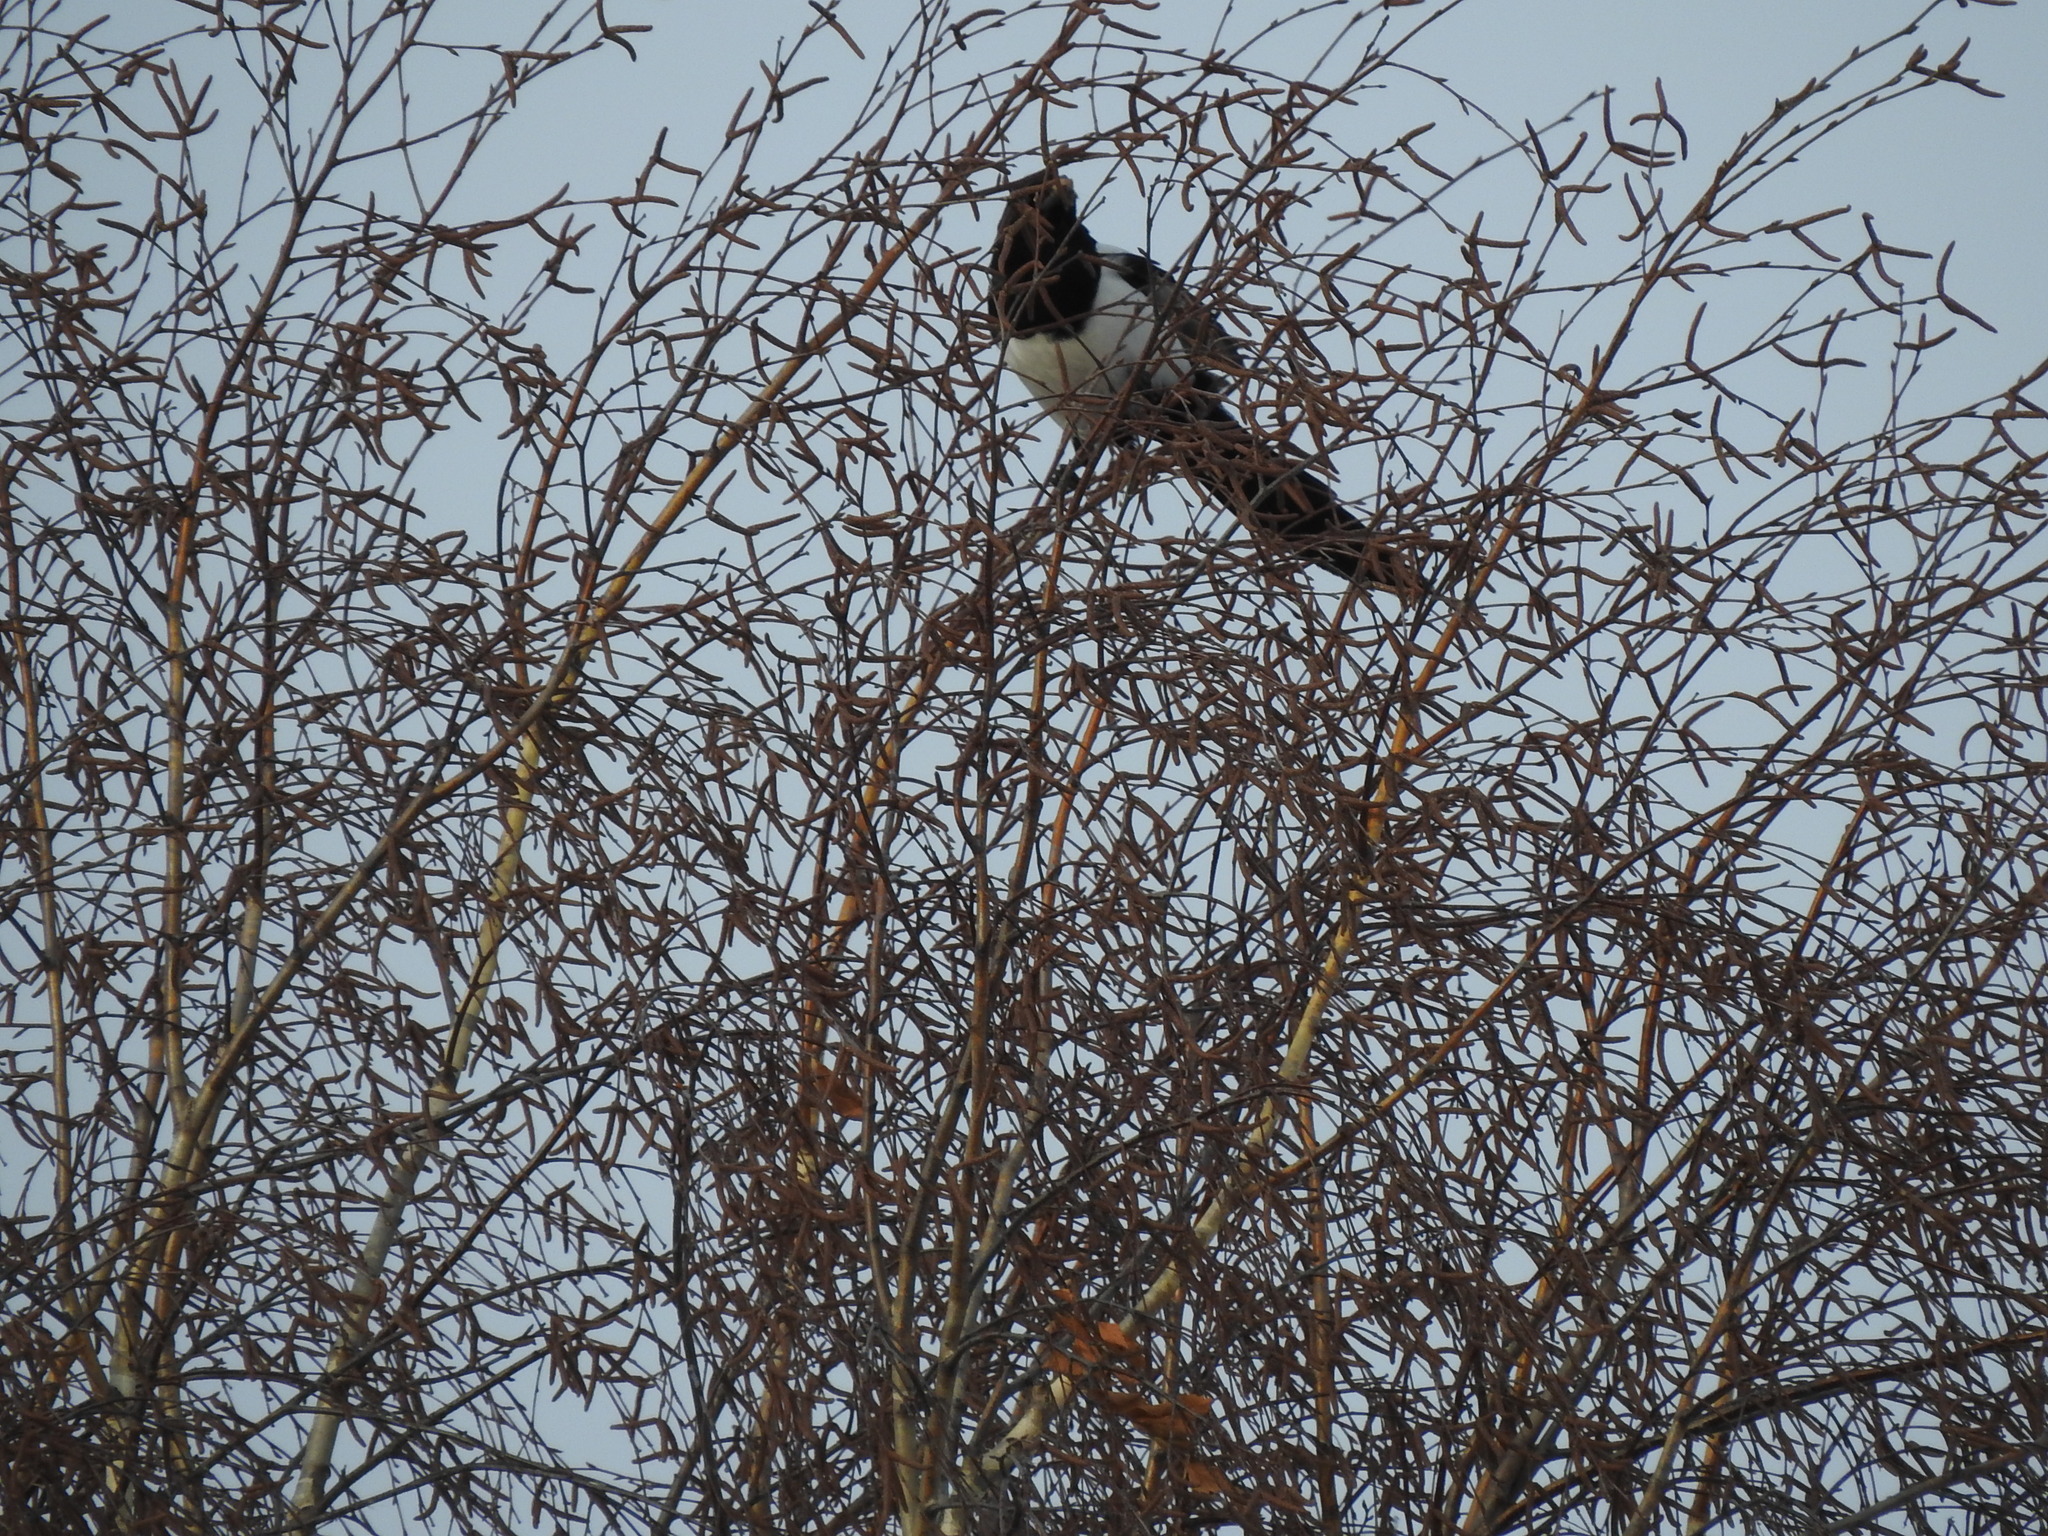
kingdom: Animalia
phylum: Chordata
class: Aves
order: Passeriformes
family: Corvidae
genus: Pica
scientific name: Pica pica
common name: Eurasian magpie
